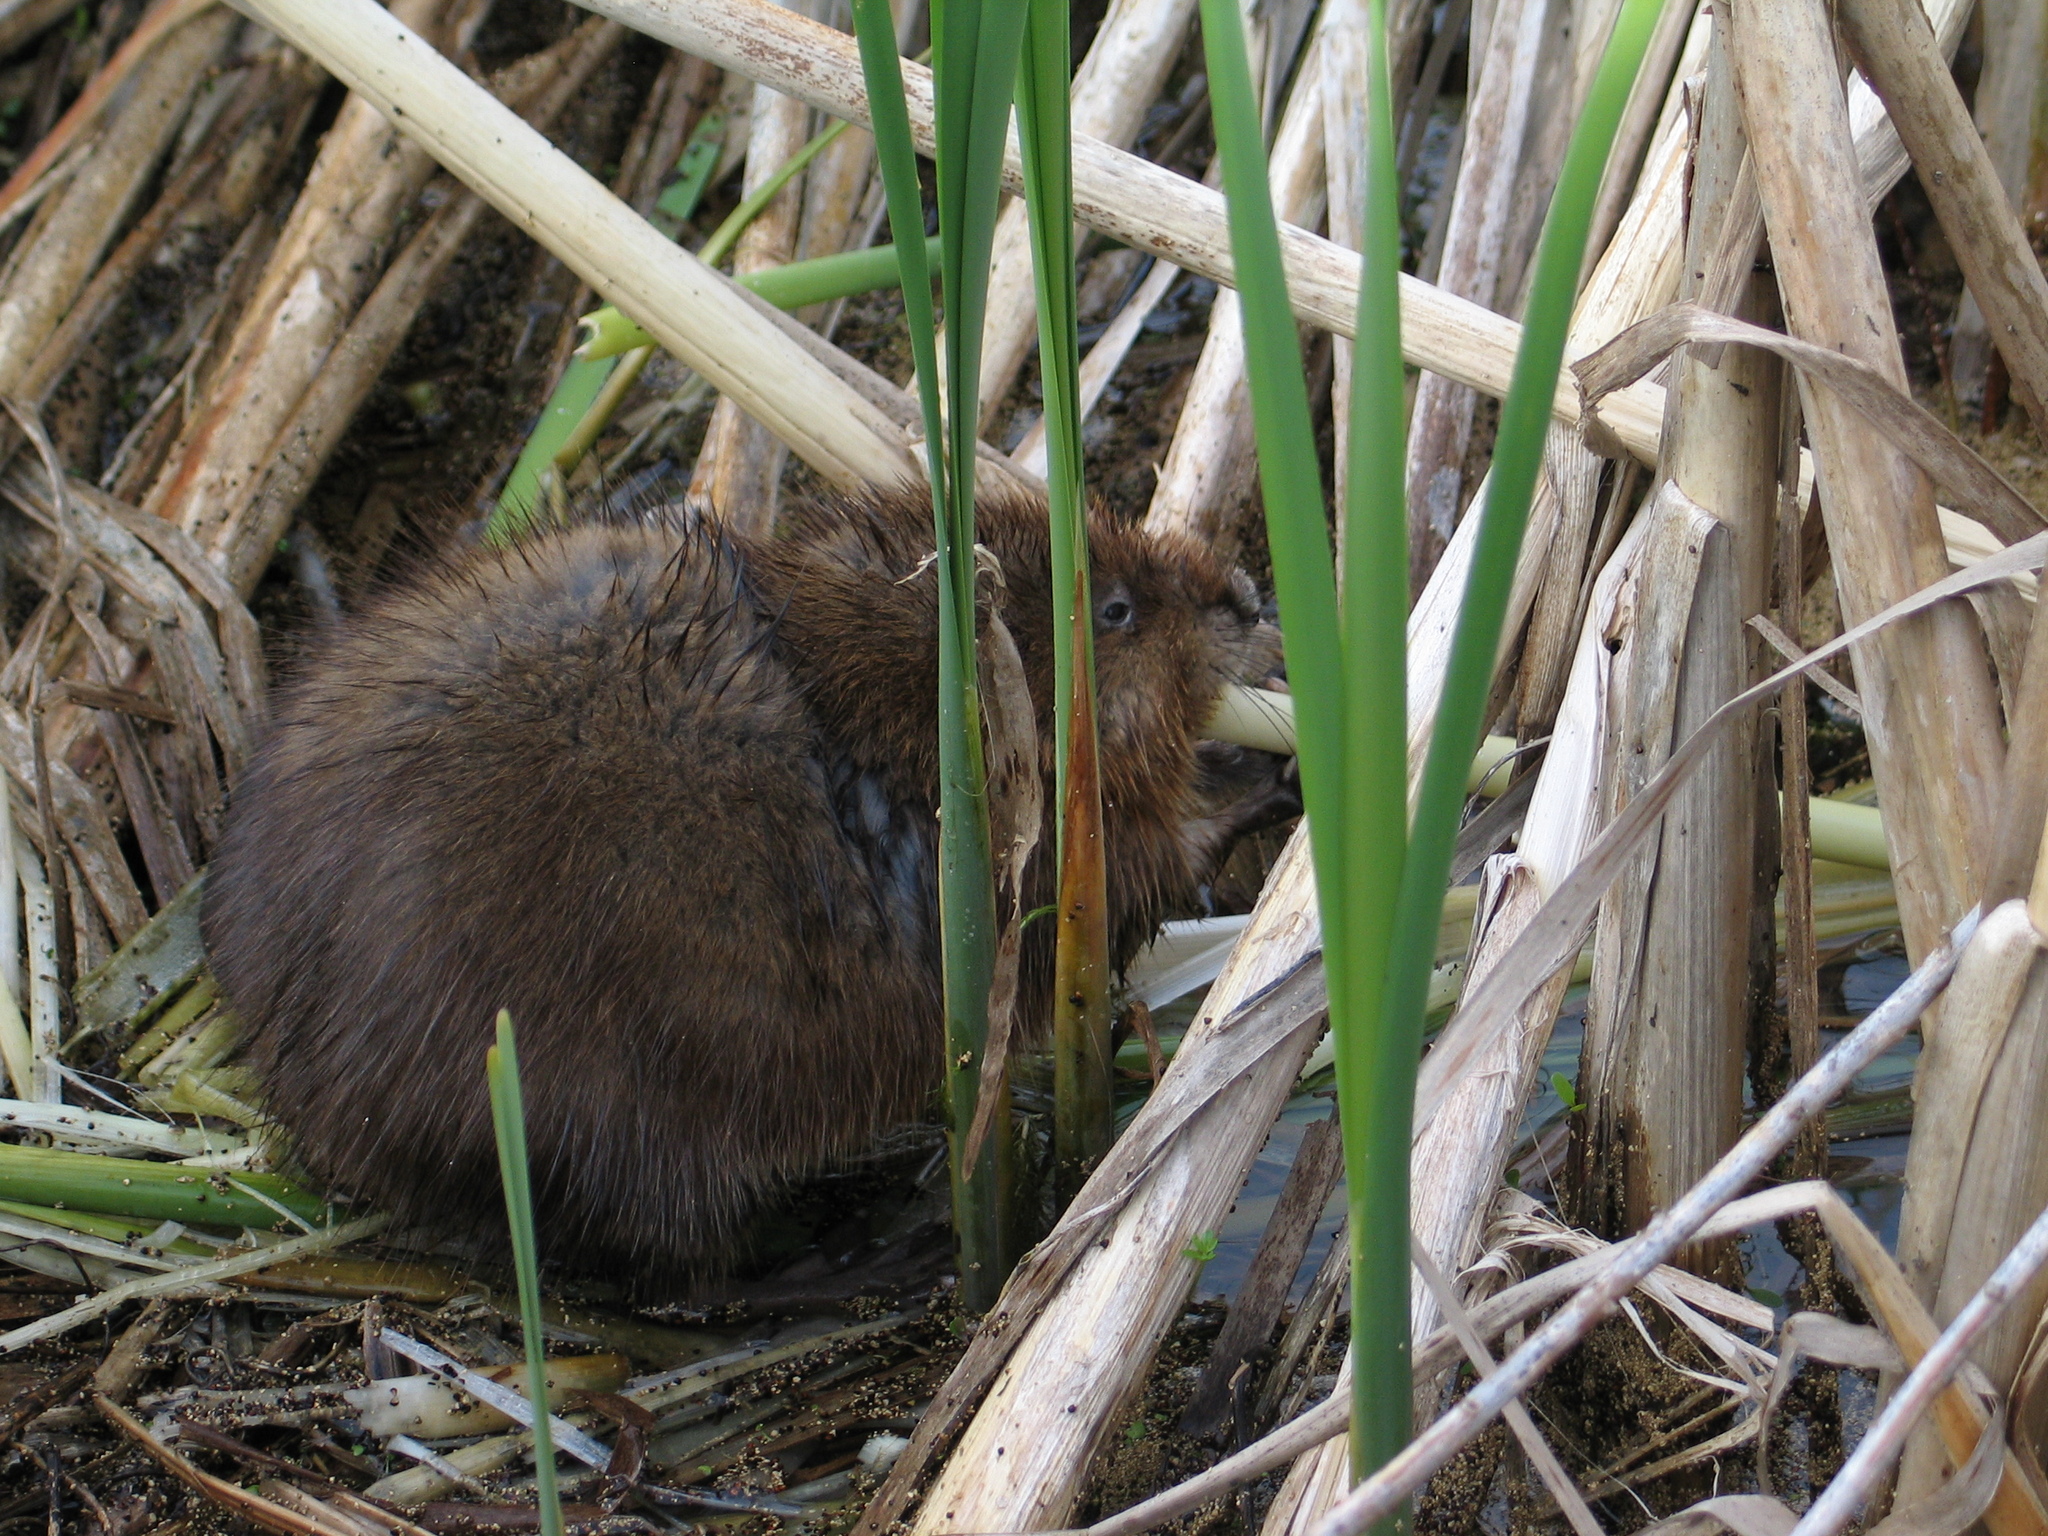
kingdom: Animalia
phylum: Chordata
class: Mammalia
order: Rodentia
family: Cricetidae
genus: Ondatra
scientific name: Ondatra zibethicus
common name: Muskrat
